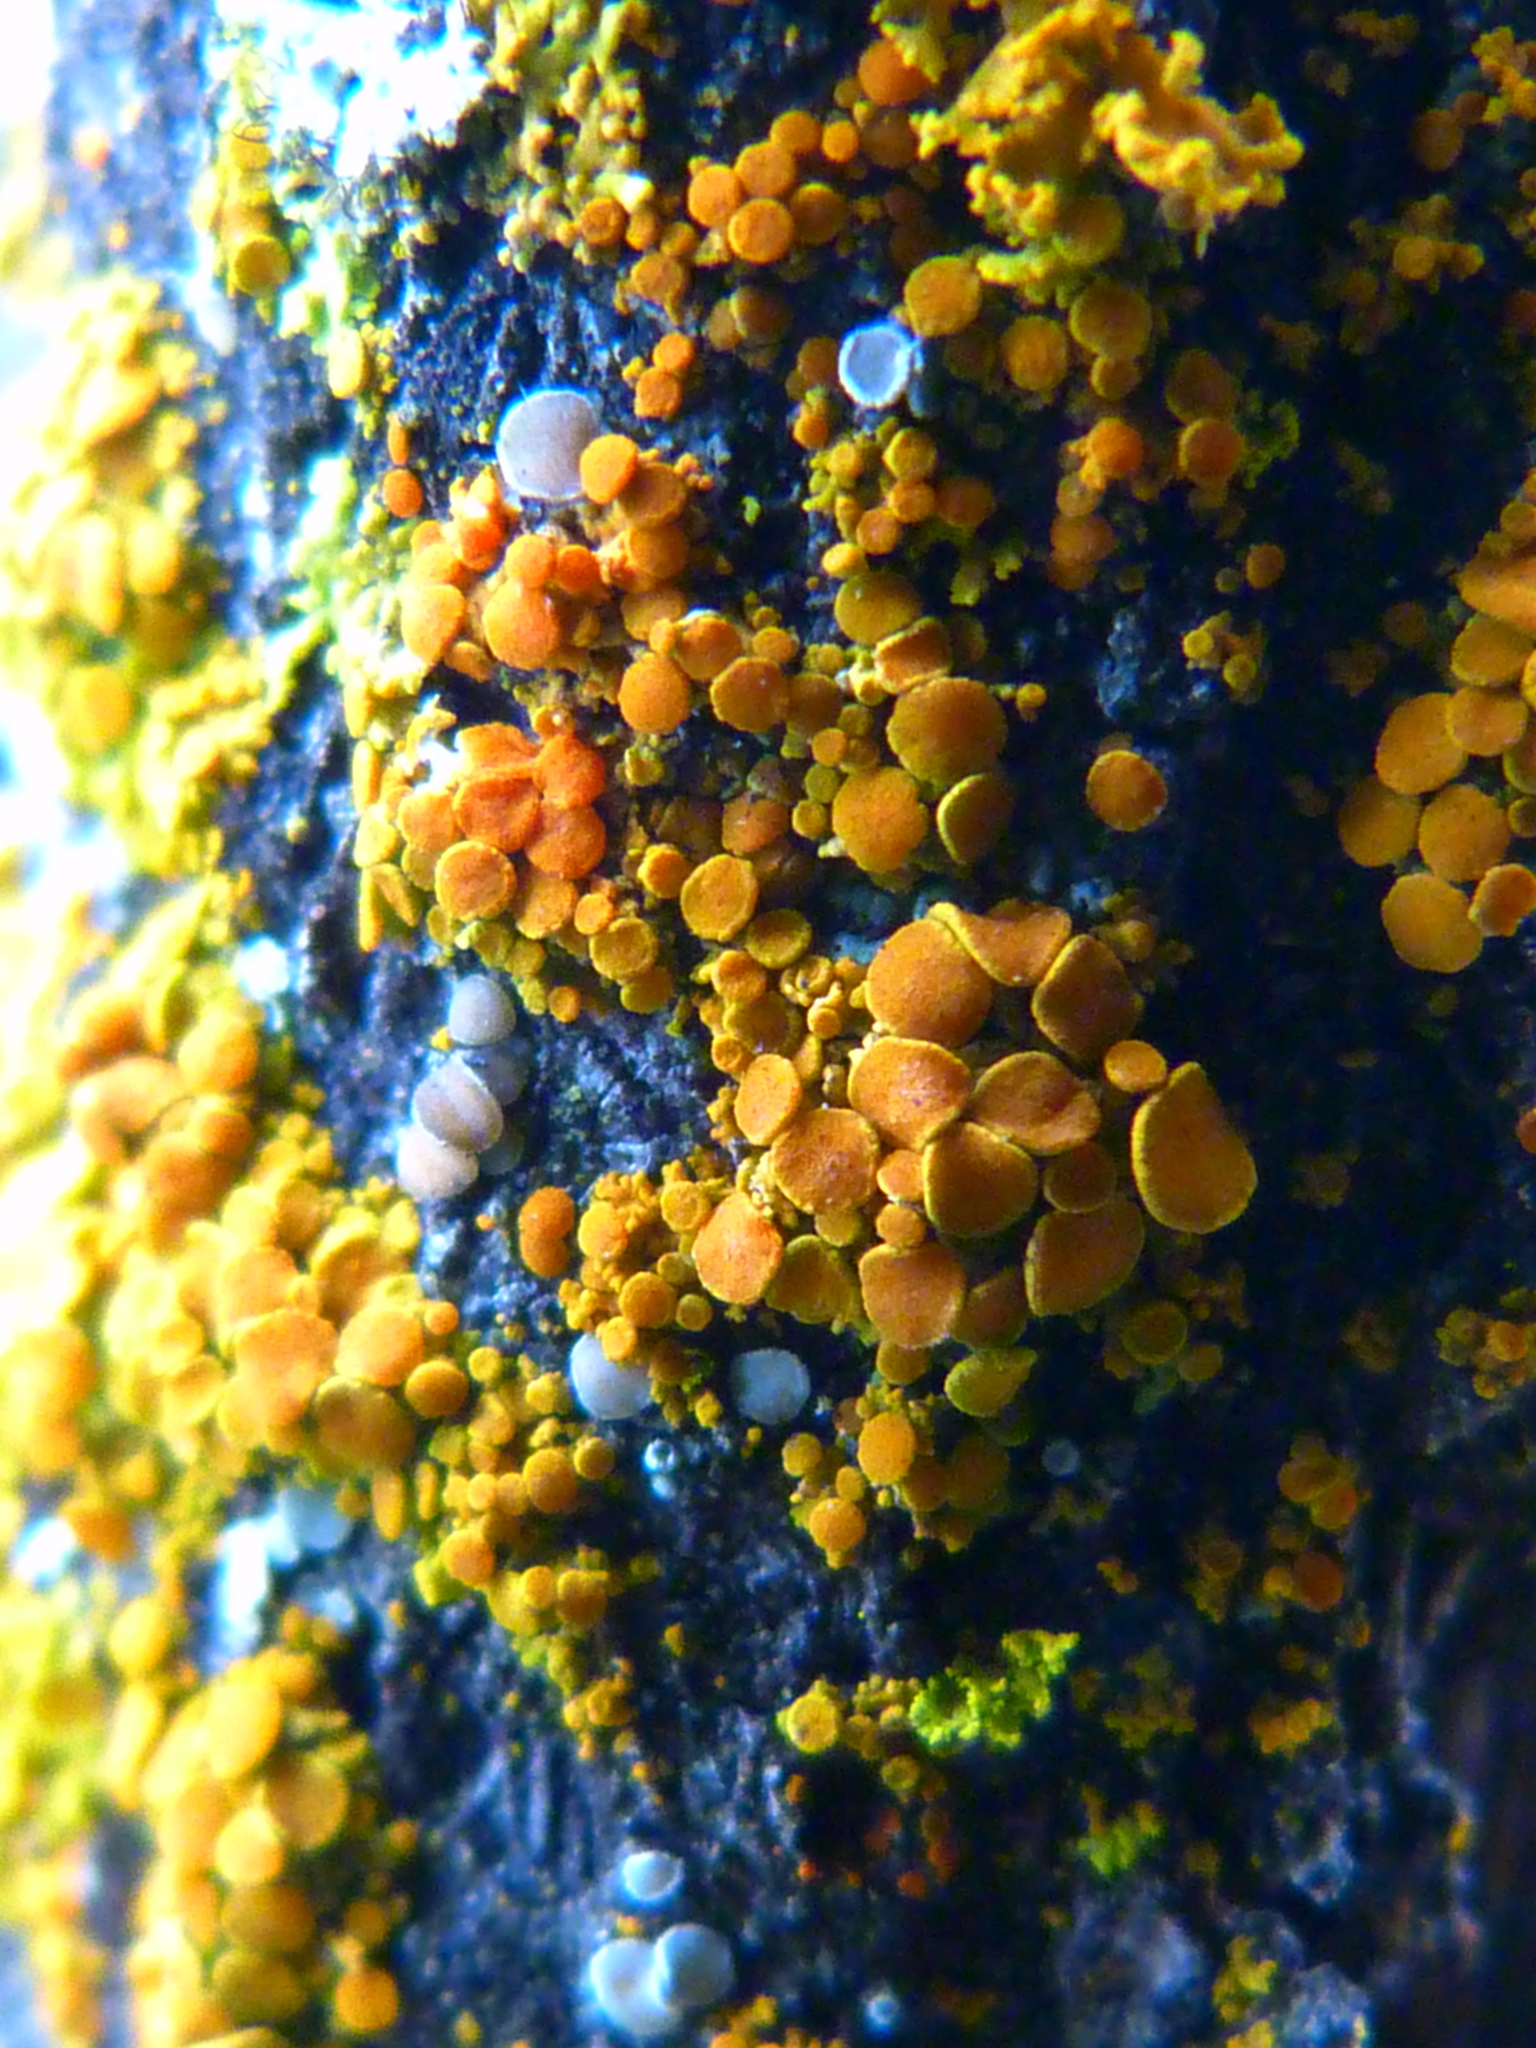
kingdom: Fungi
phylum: Ascomycota
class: Lecanoromycetes
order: Teloschistales
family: Teloschistaceae
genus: Gallowayella
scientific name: Gallowayella montana
